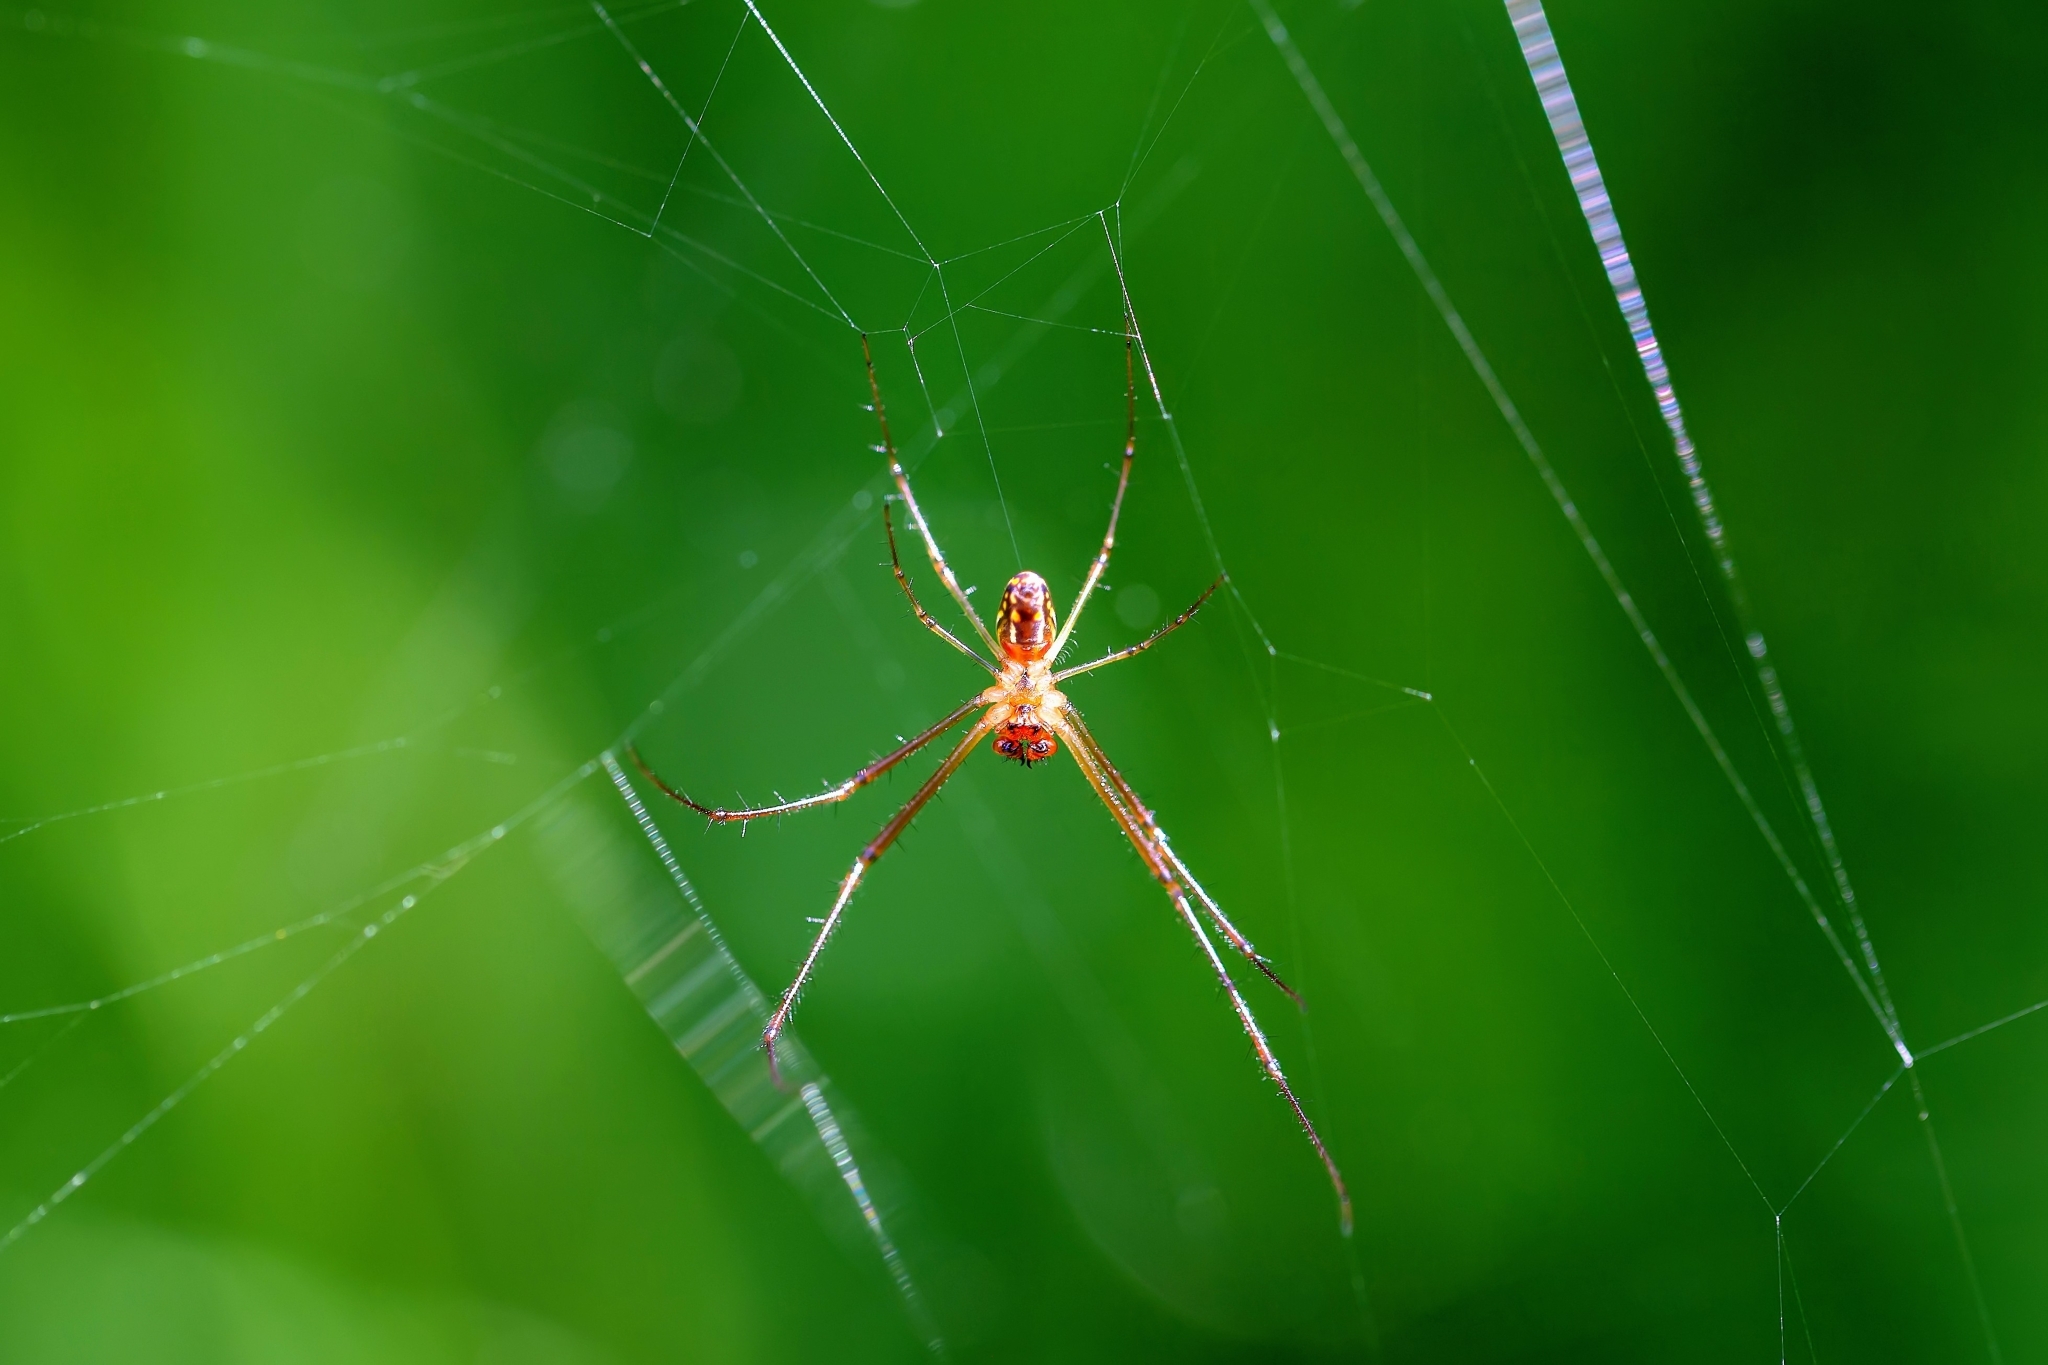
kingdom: Animalia
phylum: Arthropoda
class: Arachnida
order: Araneae
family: Tetragnathidae
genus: Leucauge
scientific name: Leucauge argyra
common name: Longjawed orb weavers
